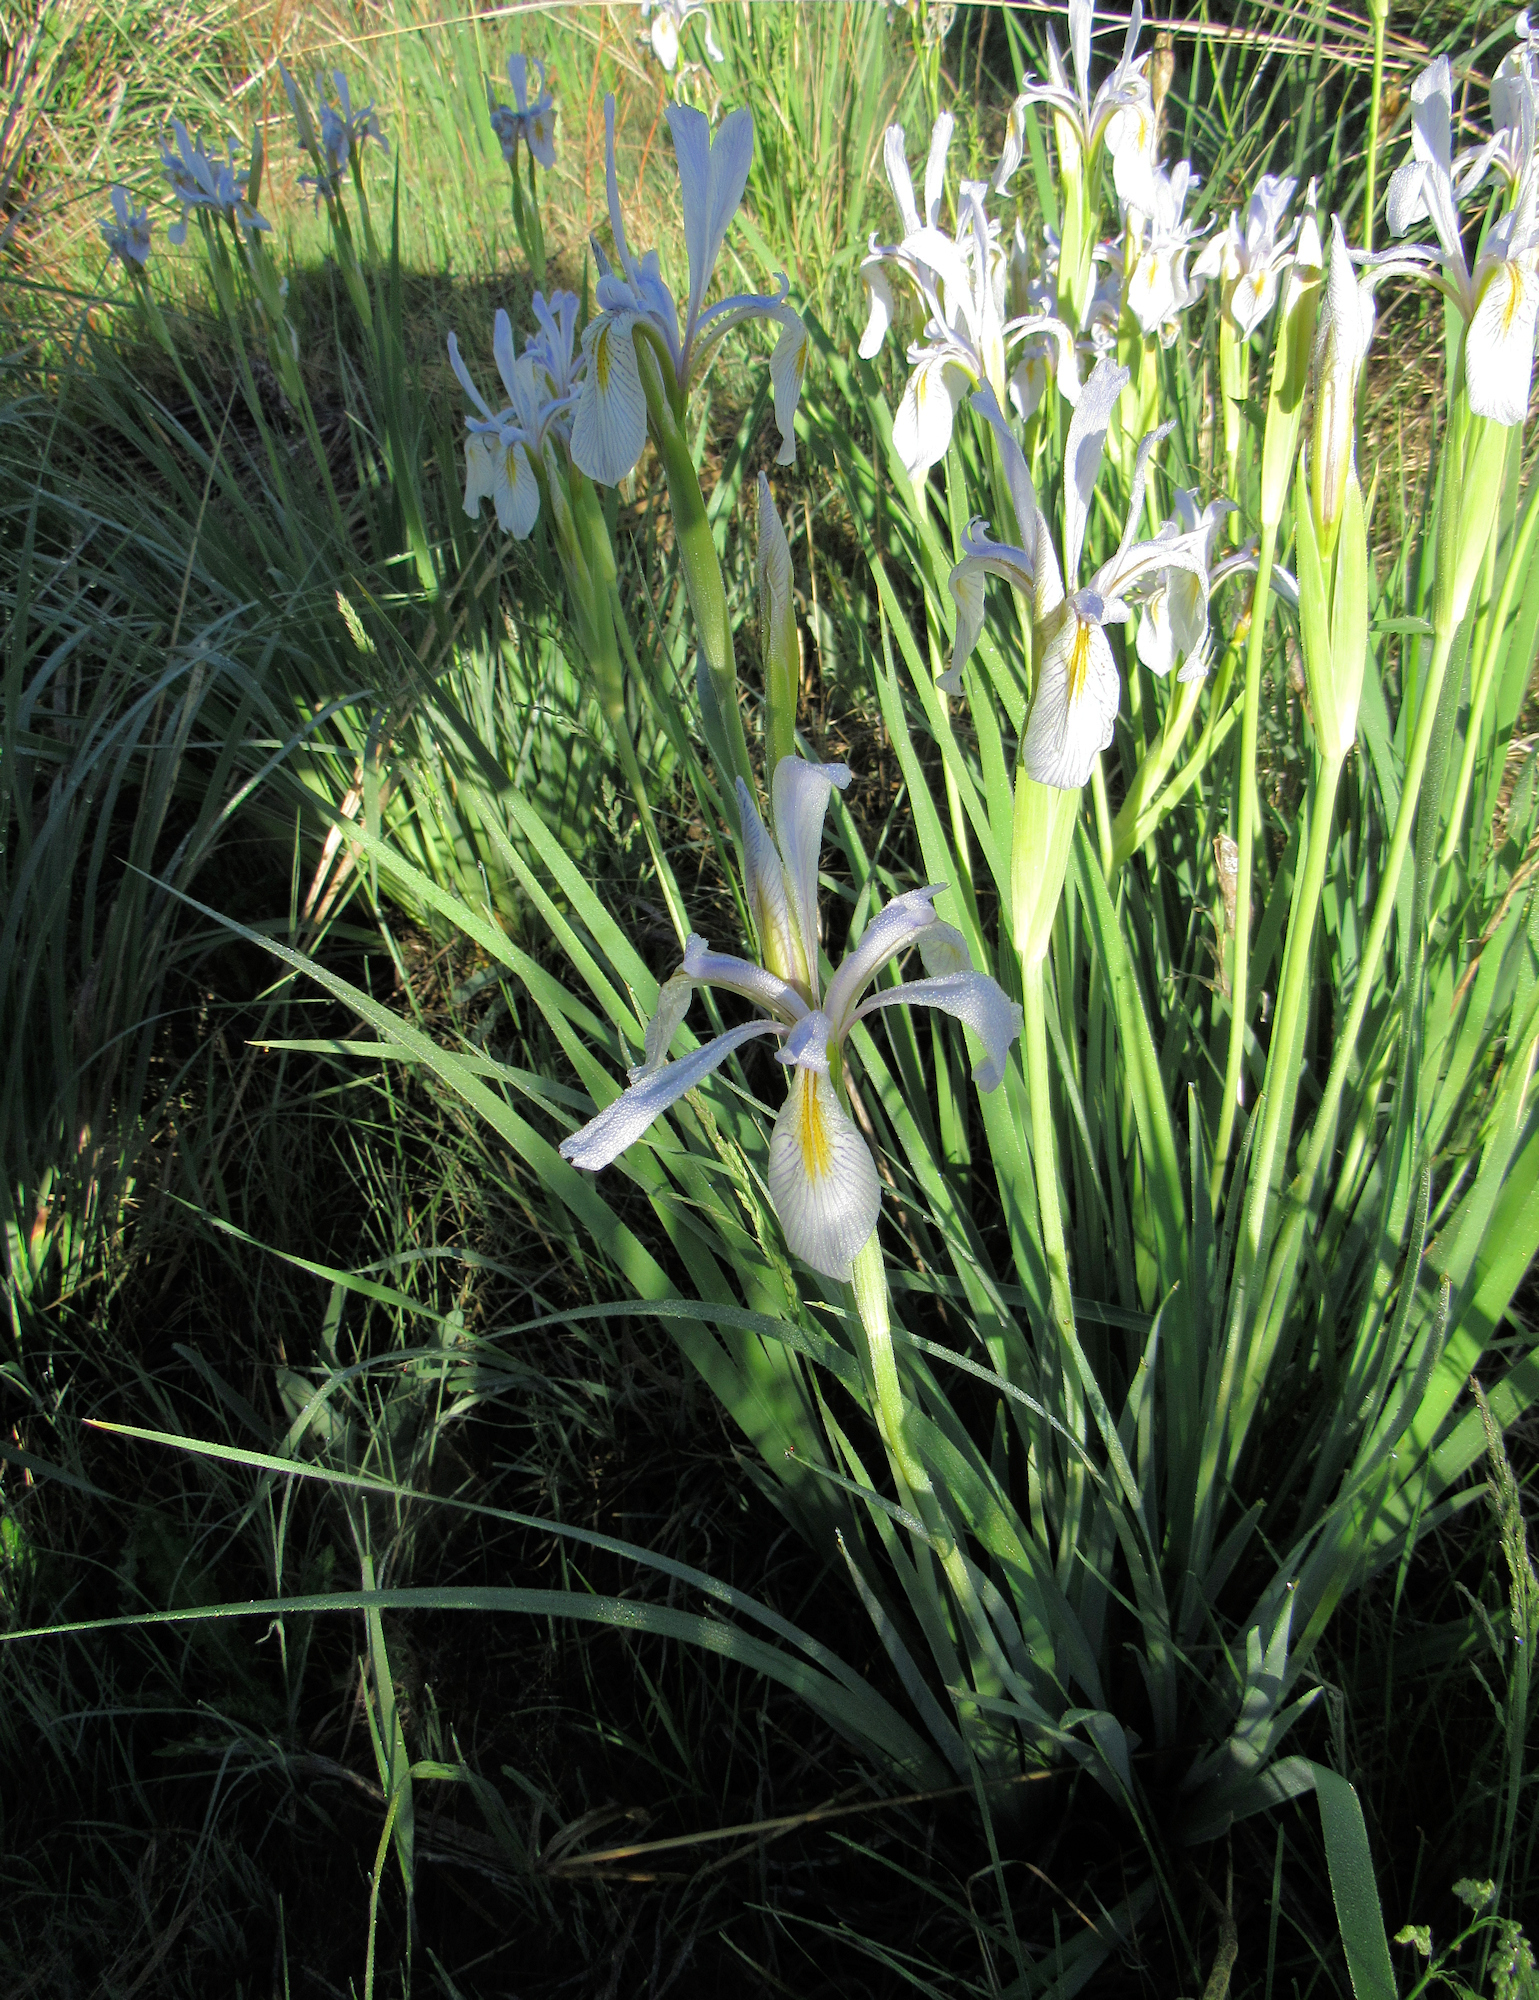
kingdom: Plantae
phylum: Tracheophyta
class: Liliopsida
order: Asparagales
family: Iridaceae
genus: Iris
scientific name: Iris missouriensis
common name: Rocky mountain iris
